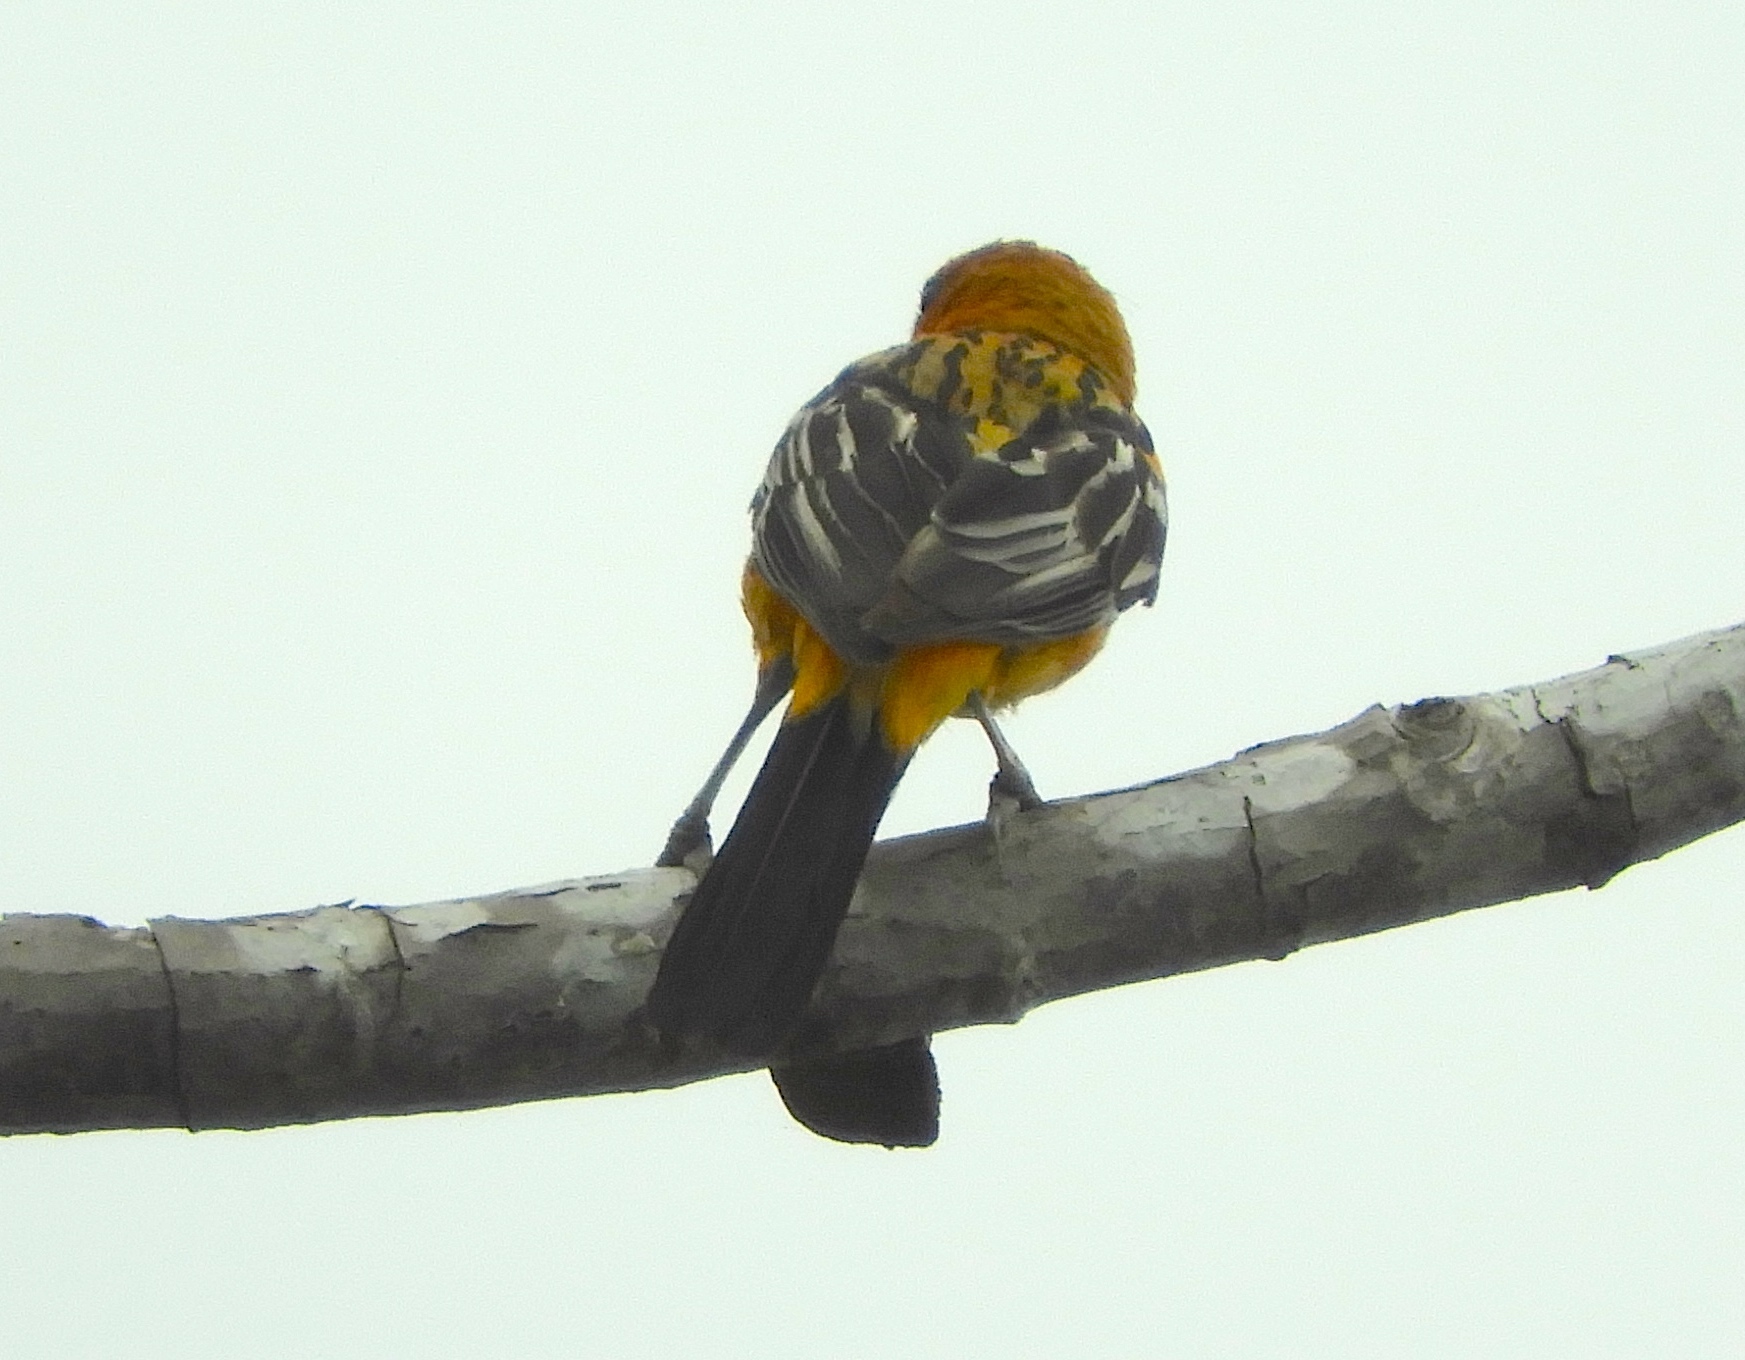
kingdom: Animalia
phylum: Chordata
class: Aves
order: Passeriformes
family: Icteridae
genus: Icterus
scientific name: Icterus pustulatus
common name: Streak-backed oriole
